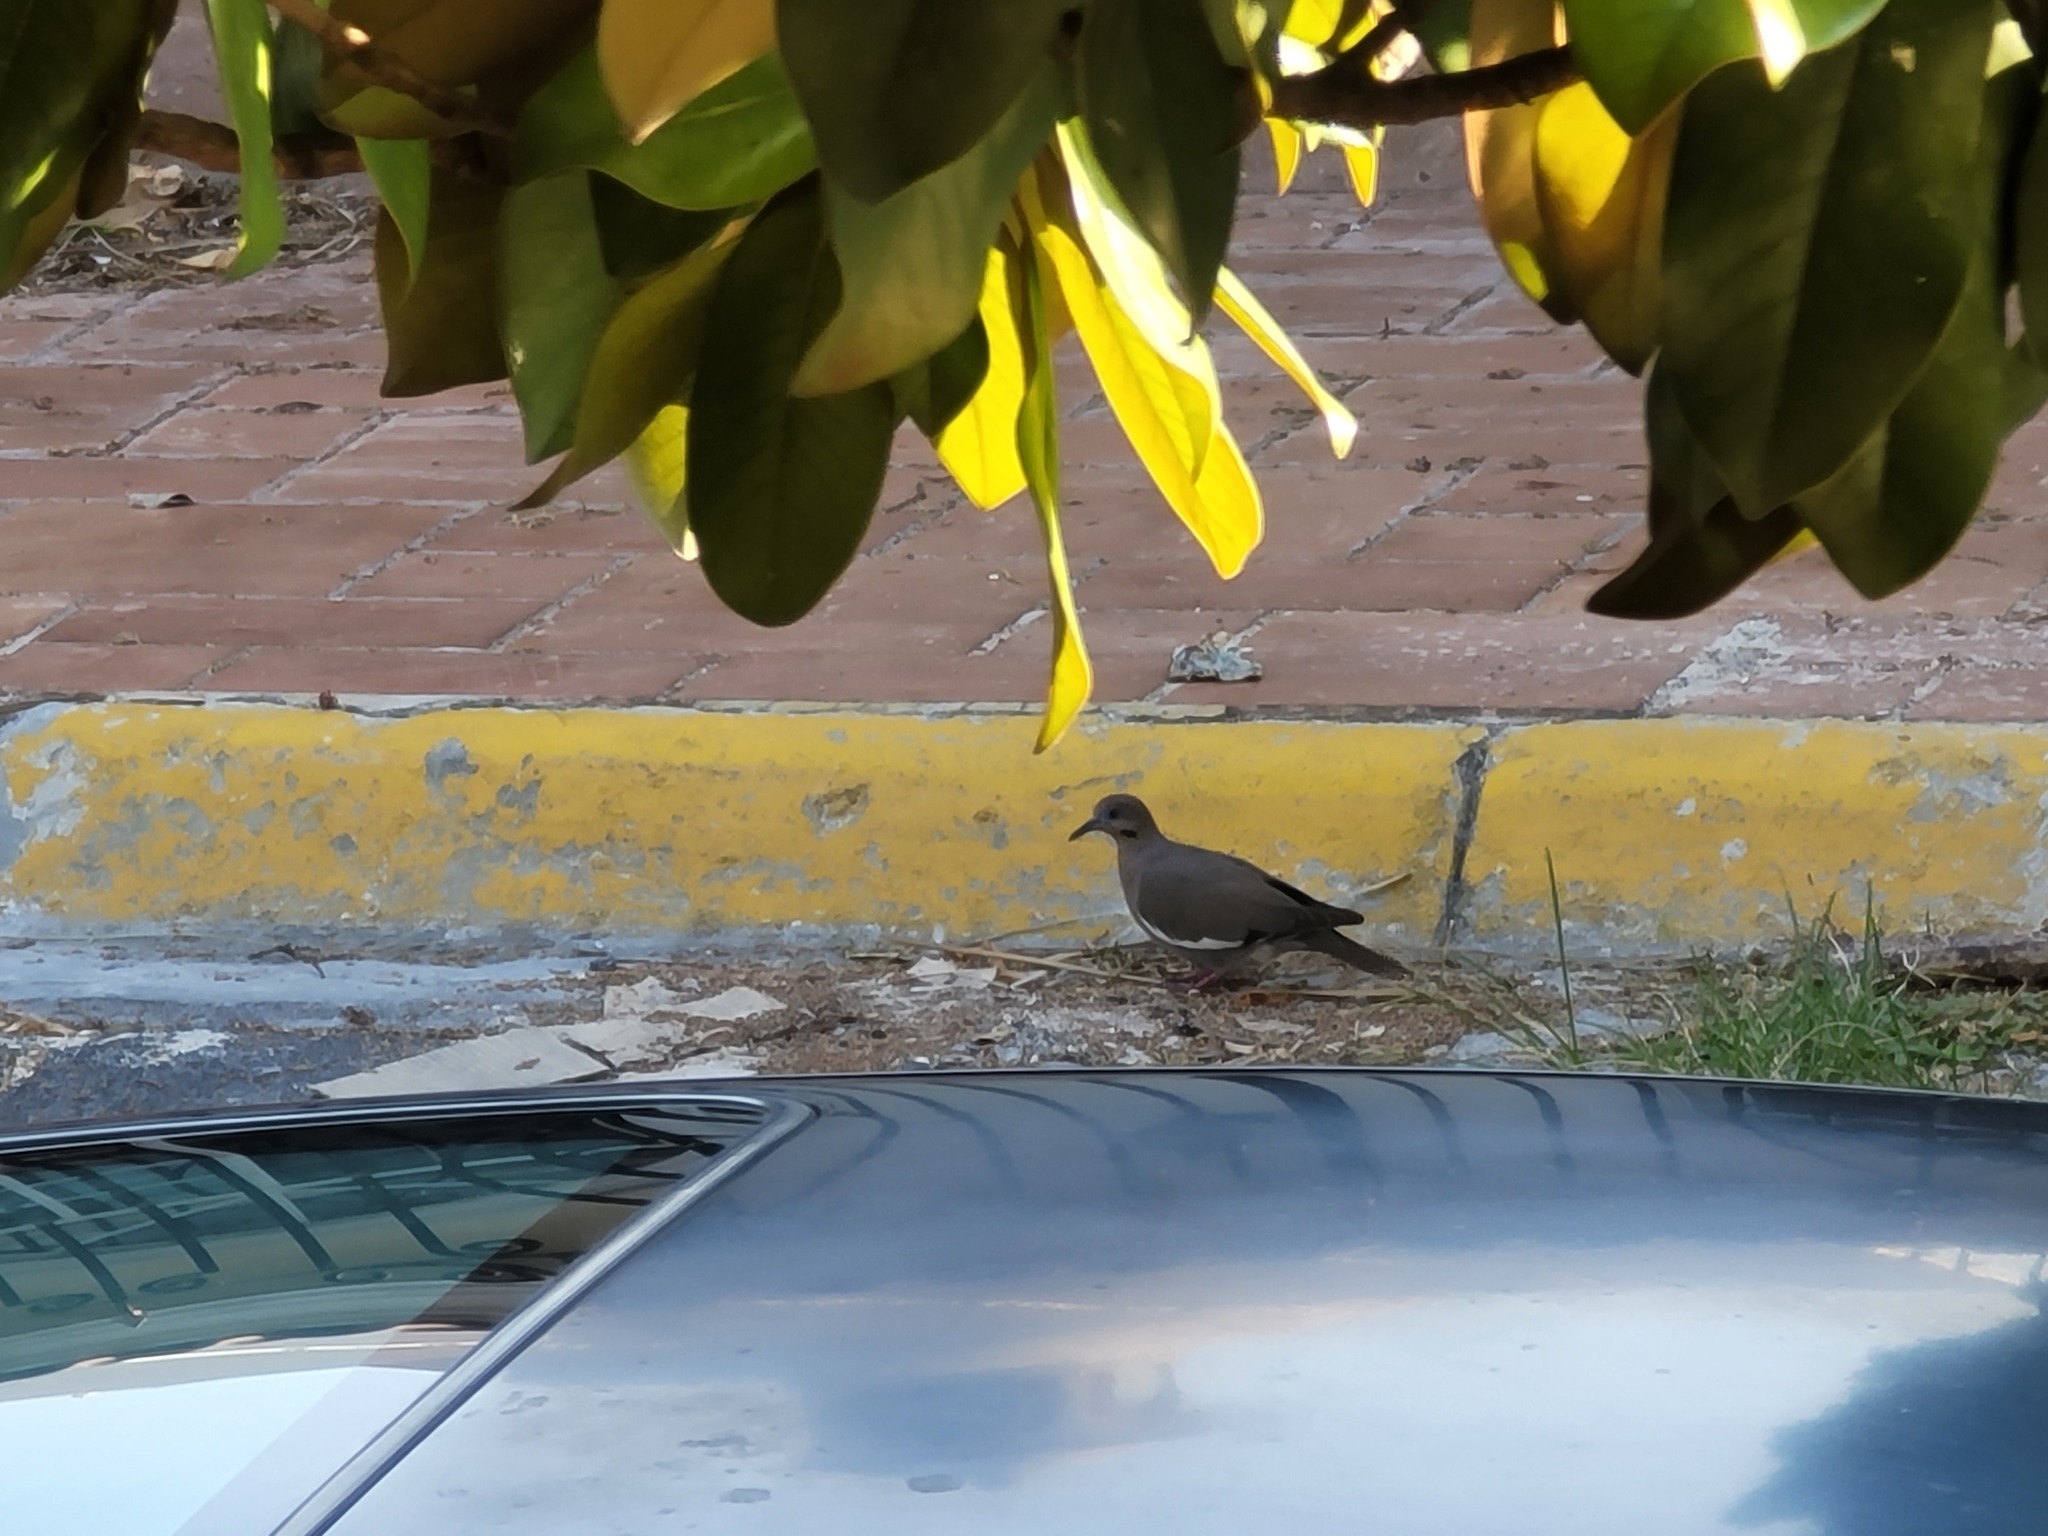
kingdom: Animalia
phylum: Chordata
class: Aves
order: Columbiformes
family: Columbidae
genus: Zenaida
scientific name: Zenaida asiatica
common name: White-winged dove
